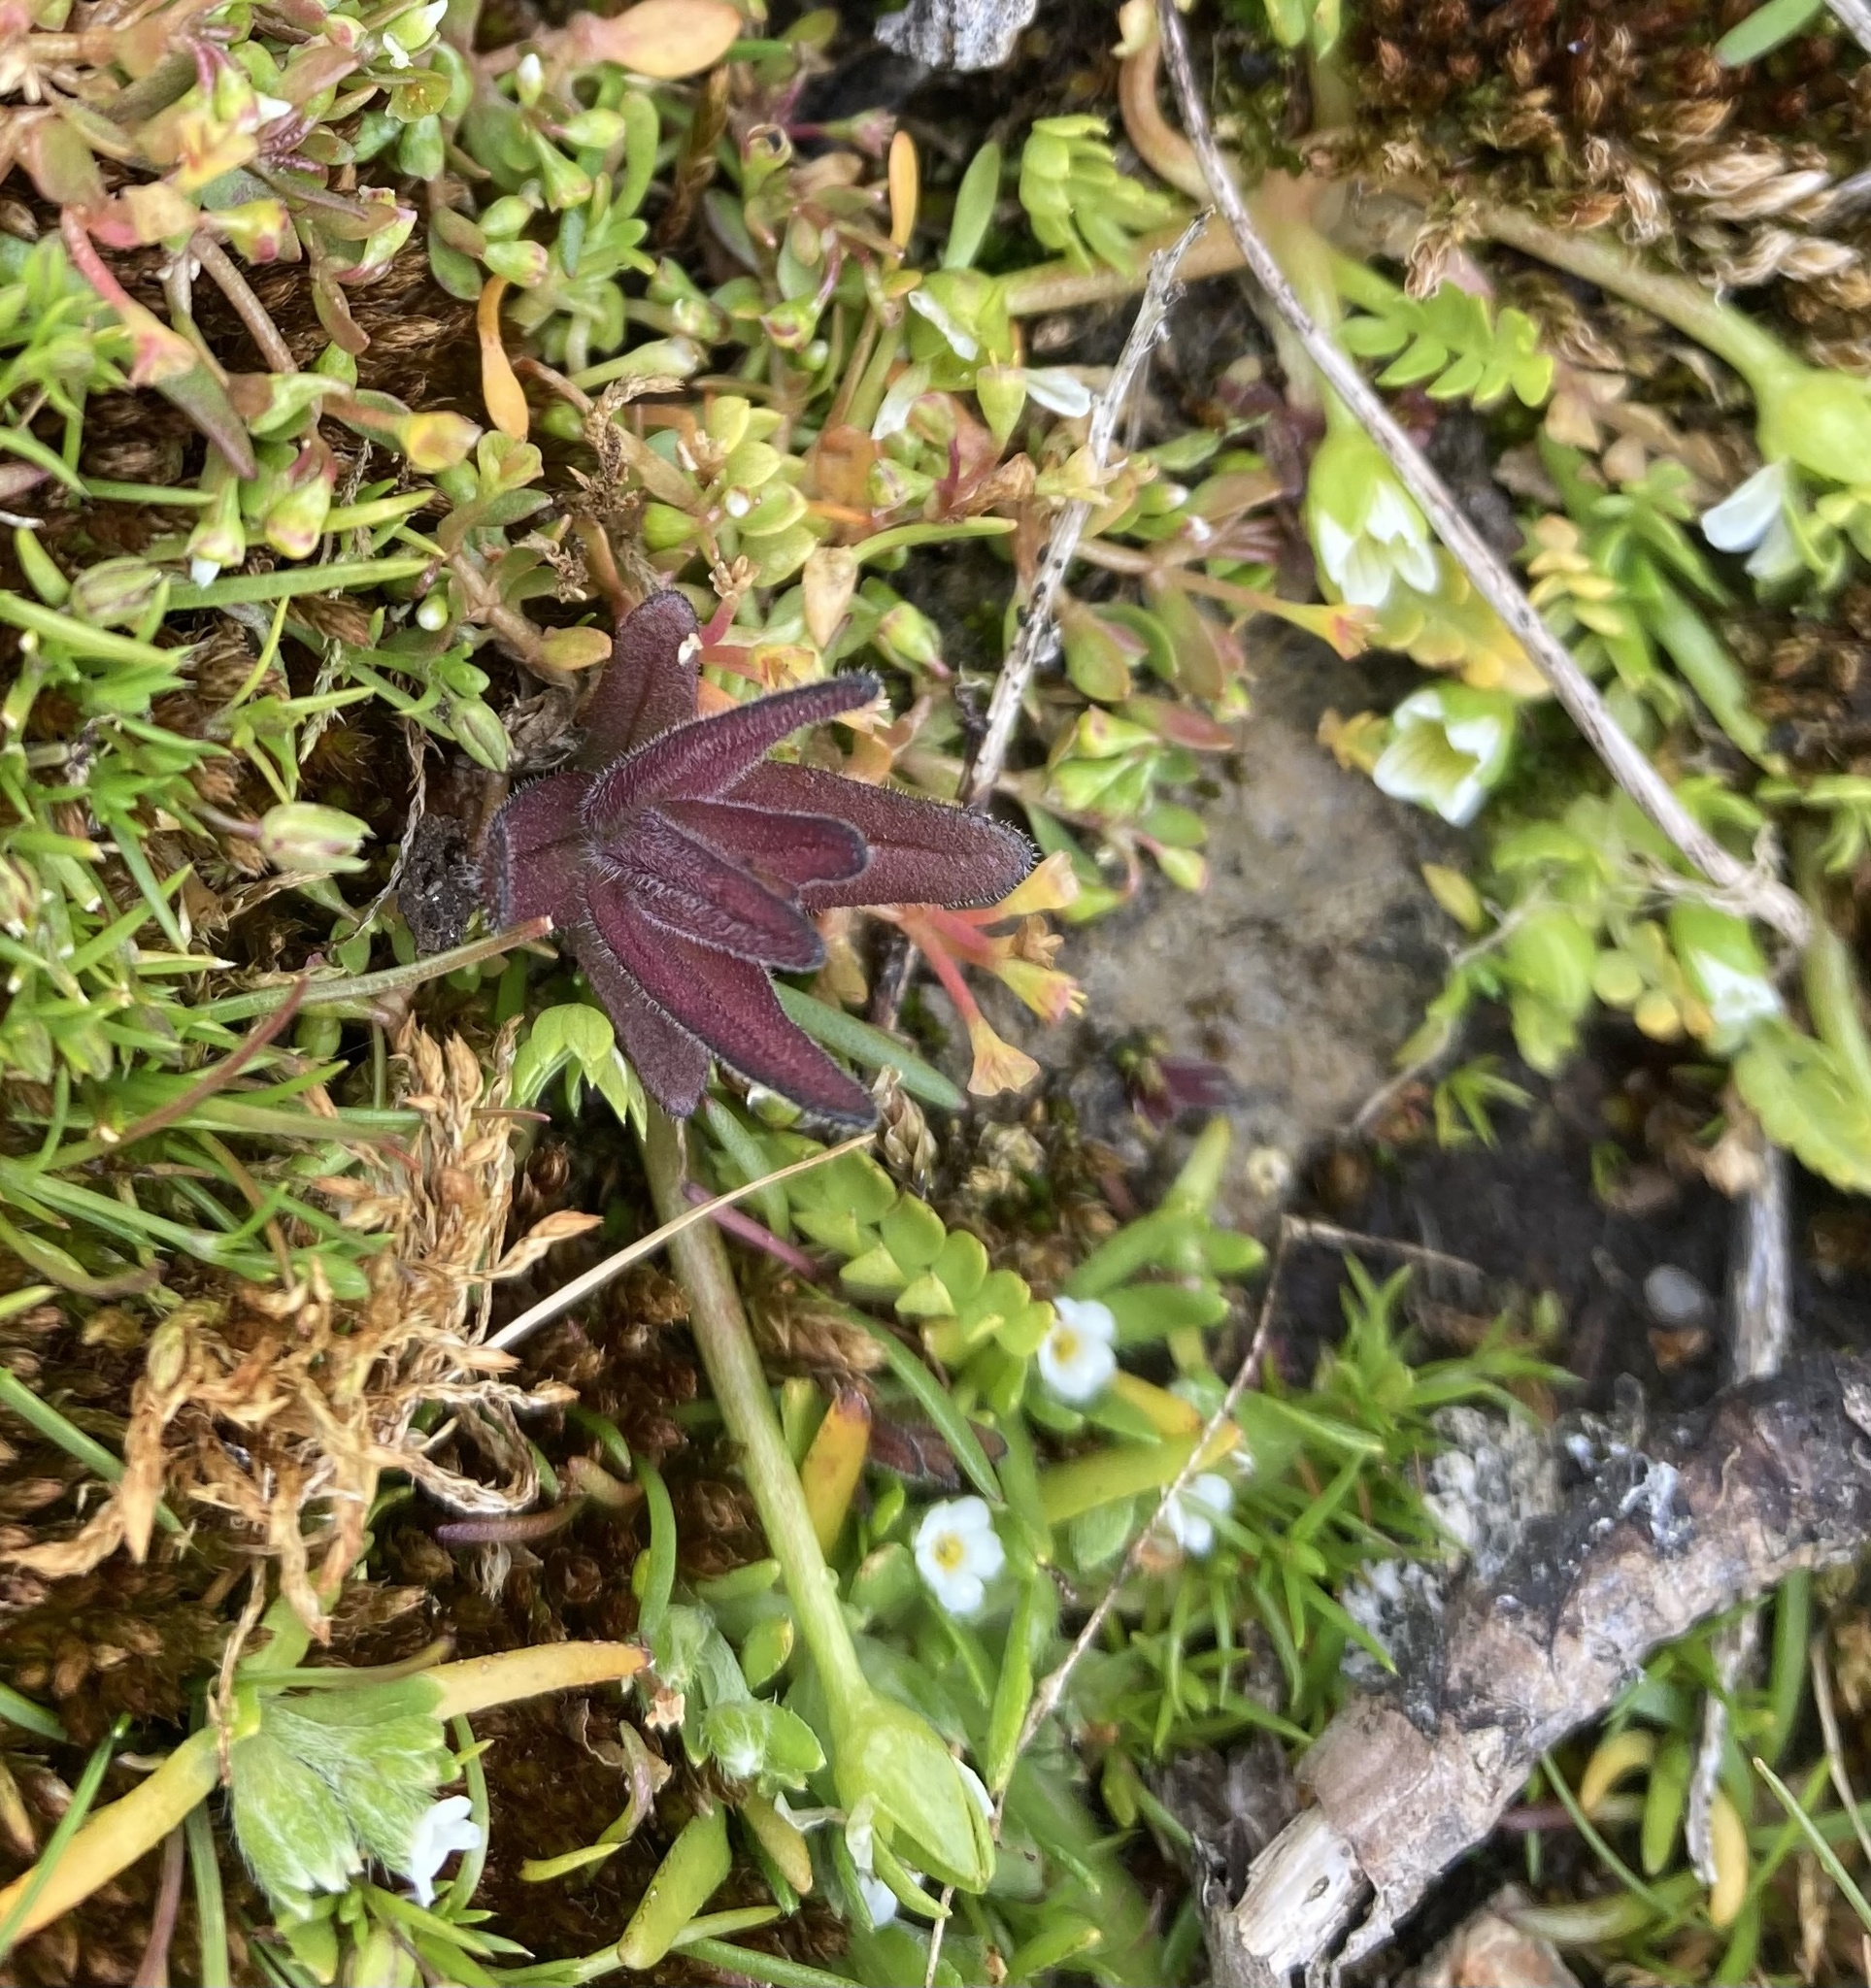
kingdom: Plantae
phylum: Tracheophyta
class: Magnoliopsida
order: Lamiales
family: Orobanchaceae
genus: Castilleja
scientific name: Castilleja victoriae
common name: Victoria paintbrush
